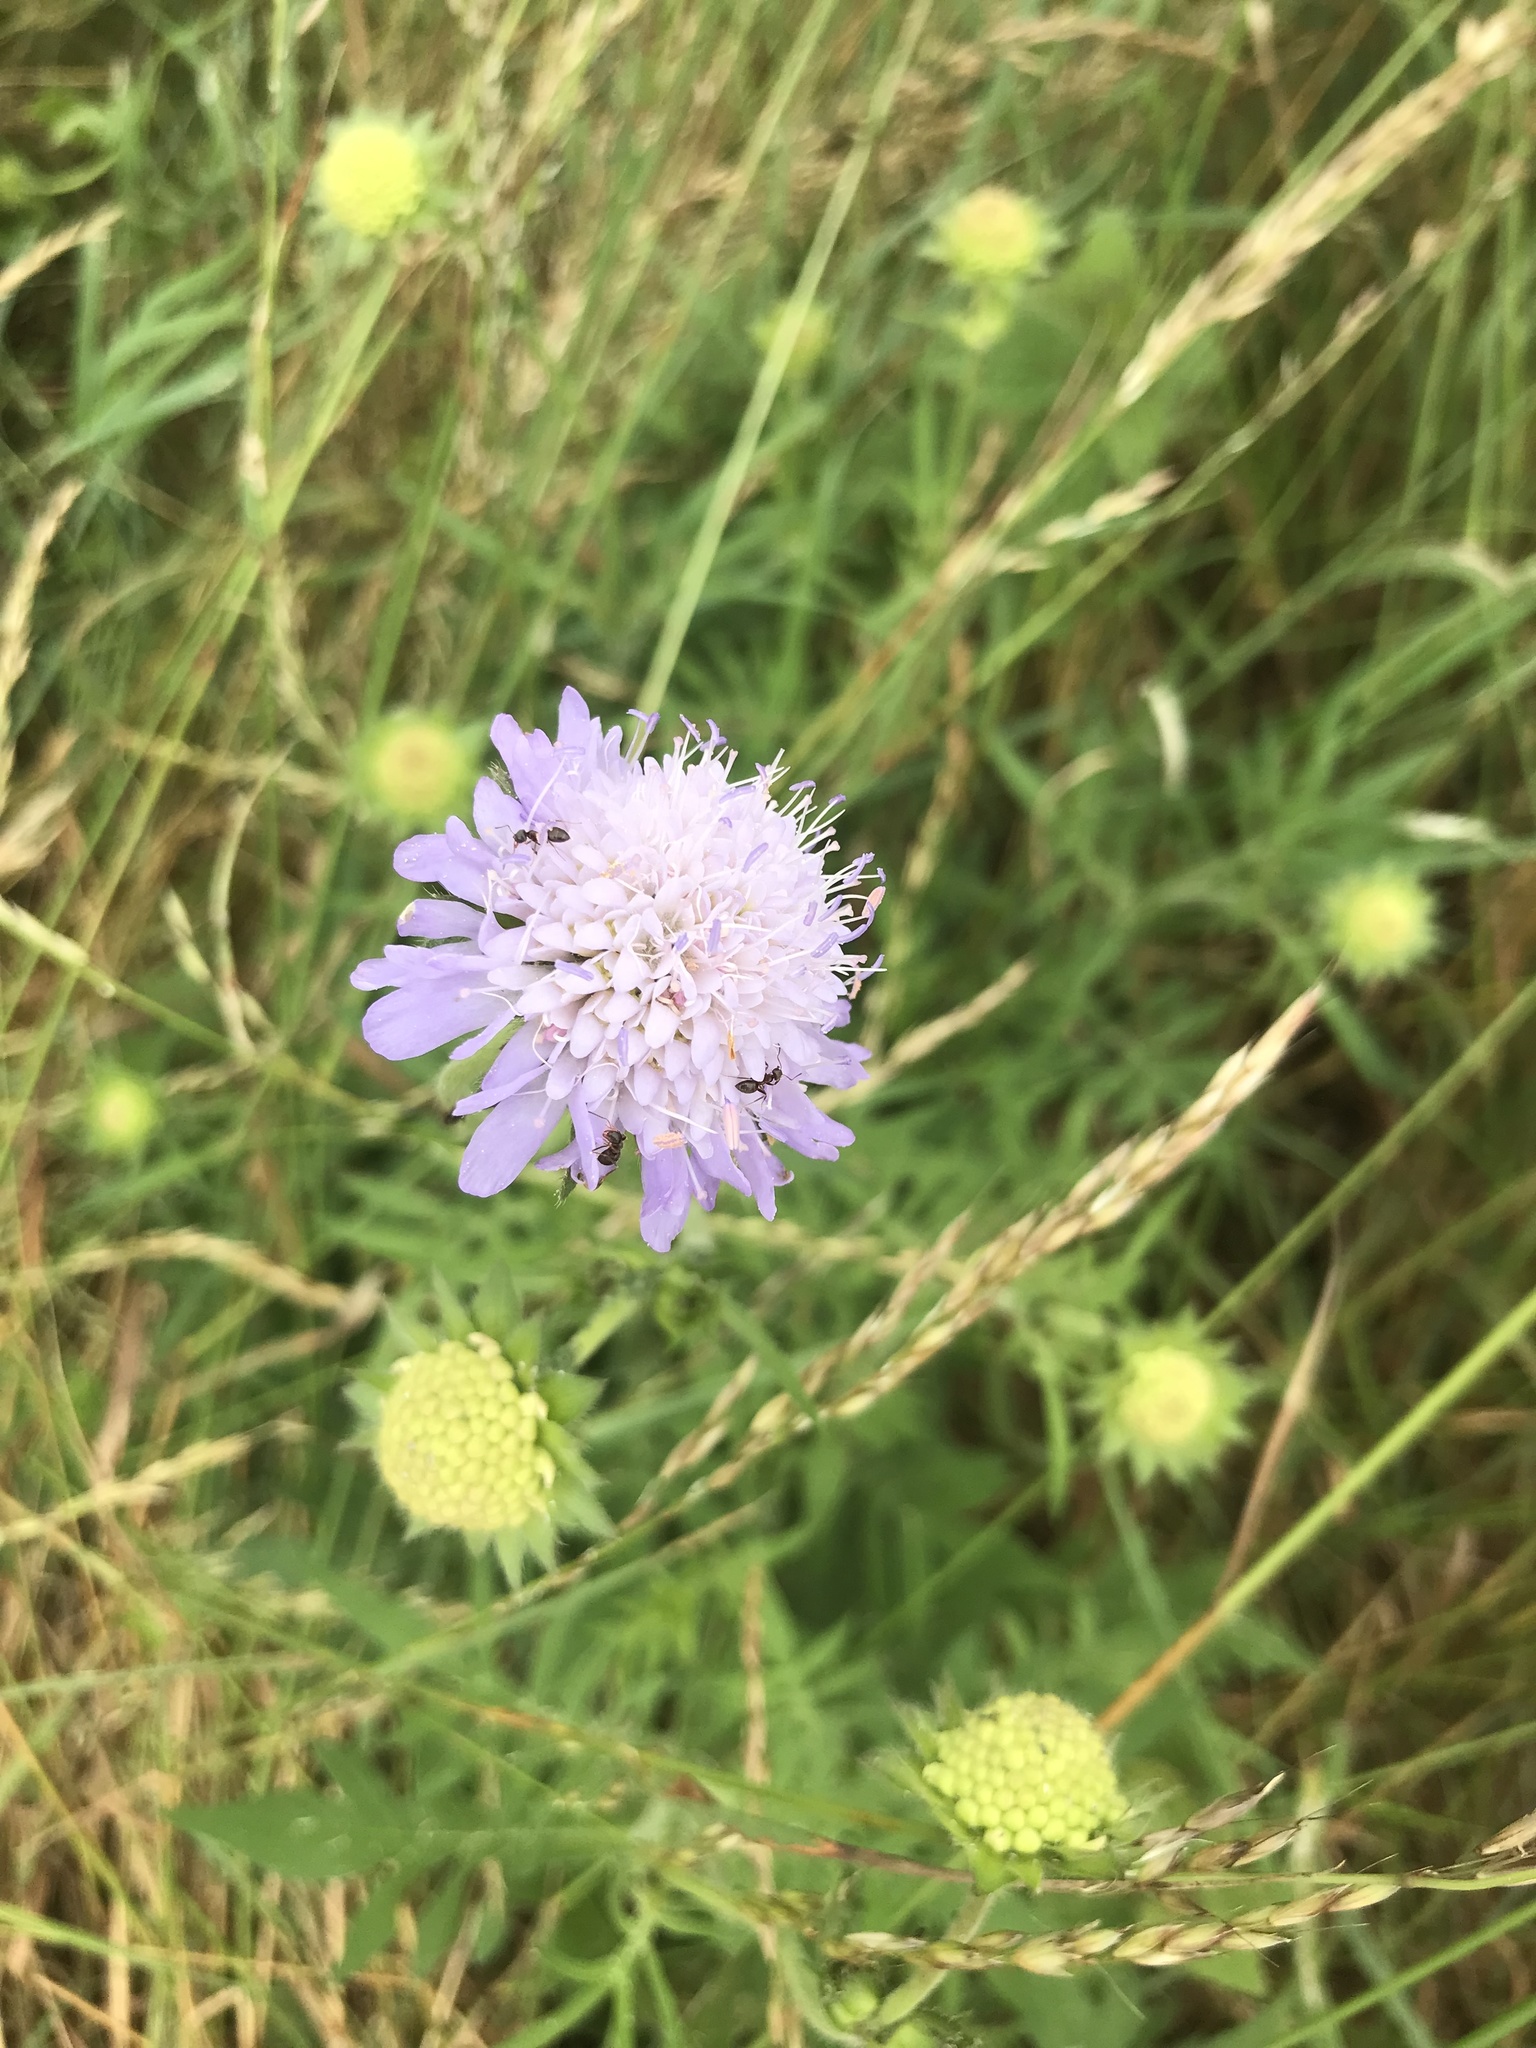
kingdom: Plantae
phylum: Tracheophyta
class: Magnoliopsida
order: Dipsacales
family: Caprifoliaceae
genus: Knautia
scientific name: Knautia arvensis
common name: Field scabiosa
